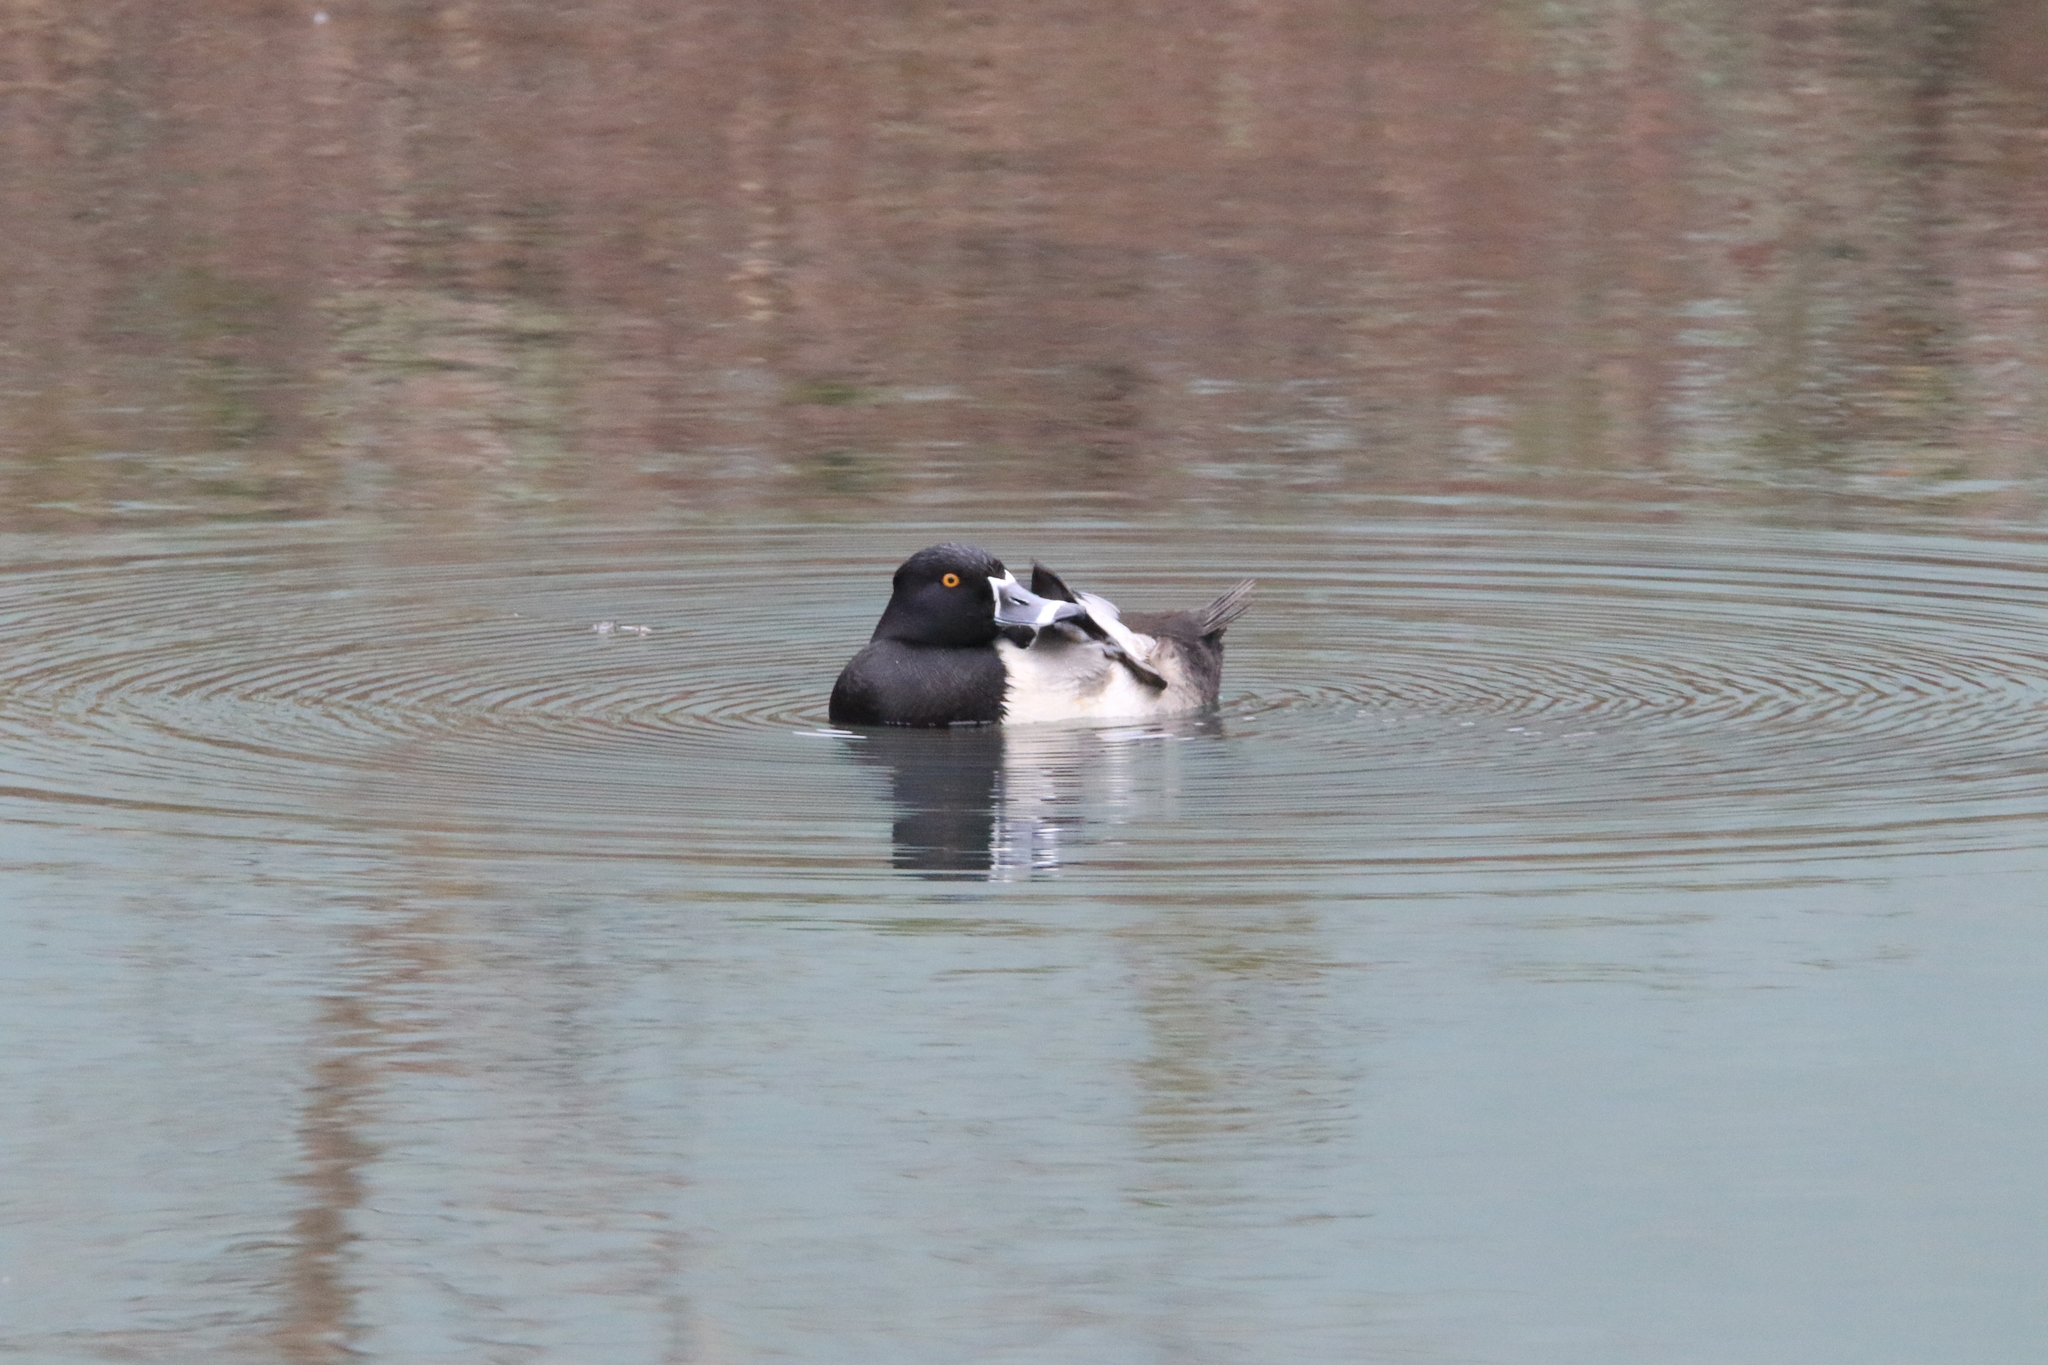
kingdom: Animalia
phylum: Chordata
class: Aves
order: Anseriformes
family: Anatidae
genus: Aythya
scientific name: Aythya collaris
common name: Ring-necked duck
